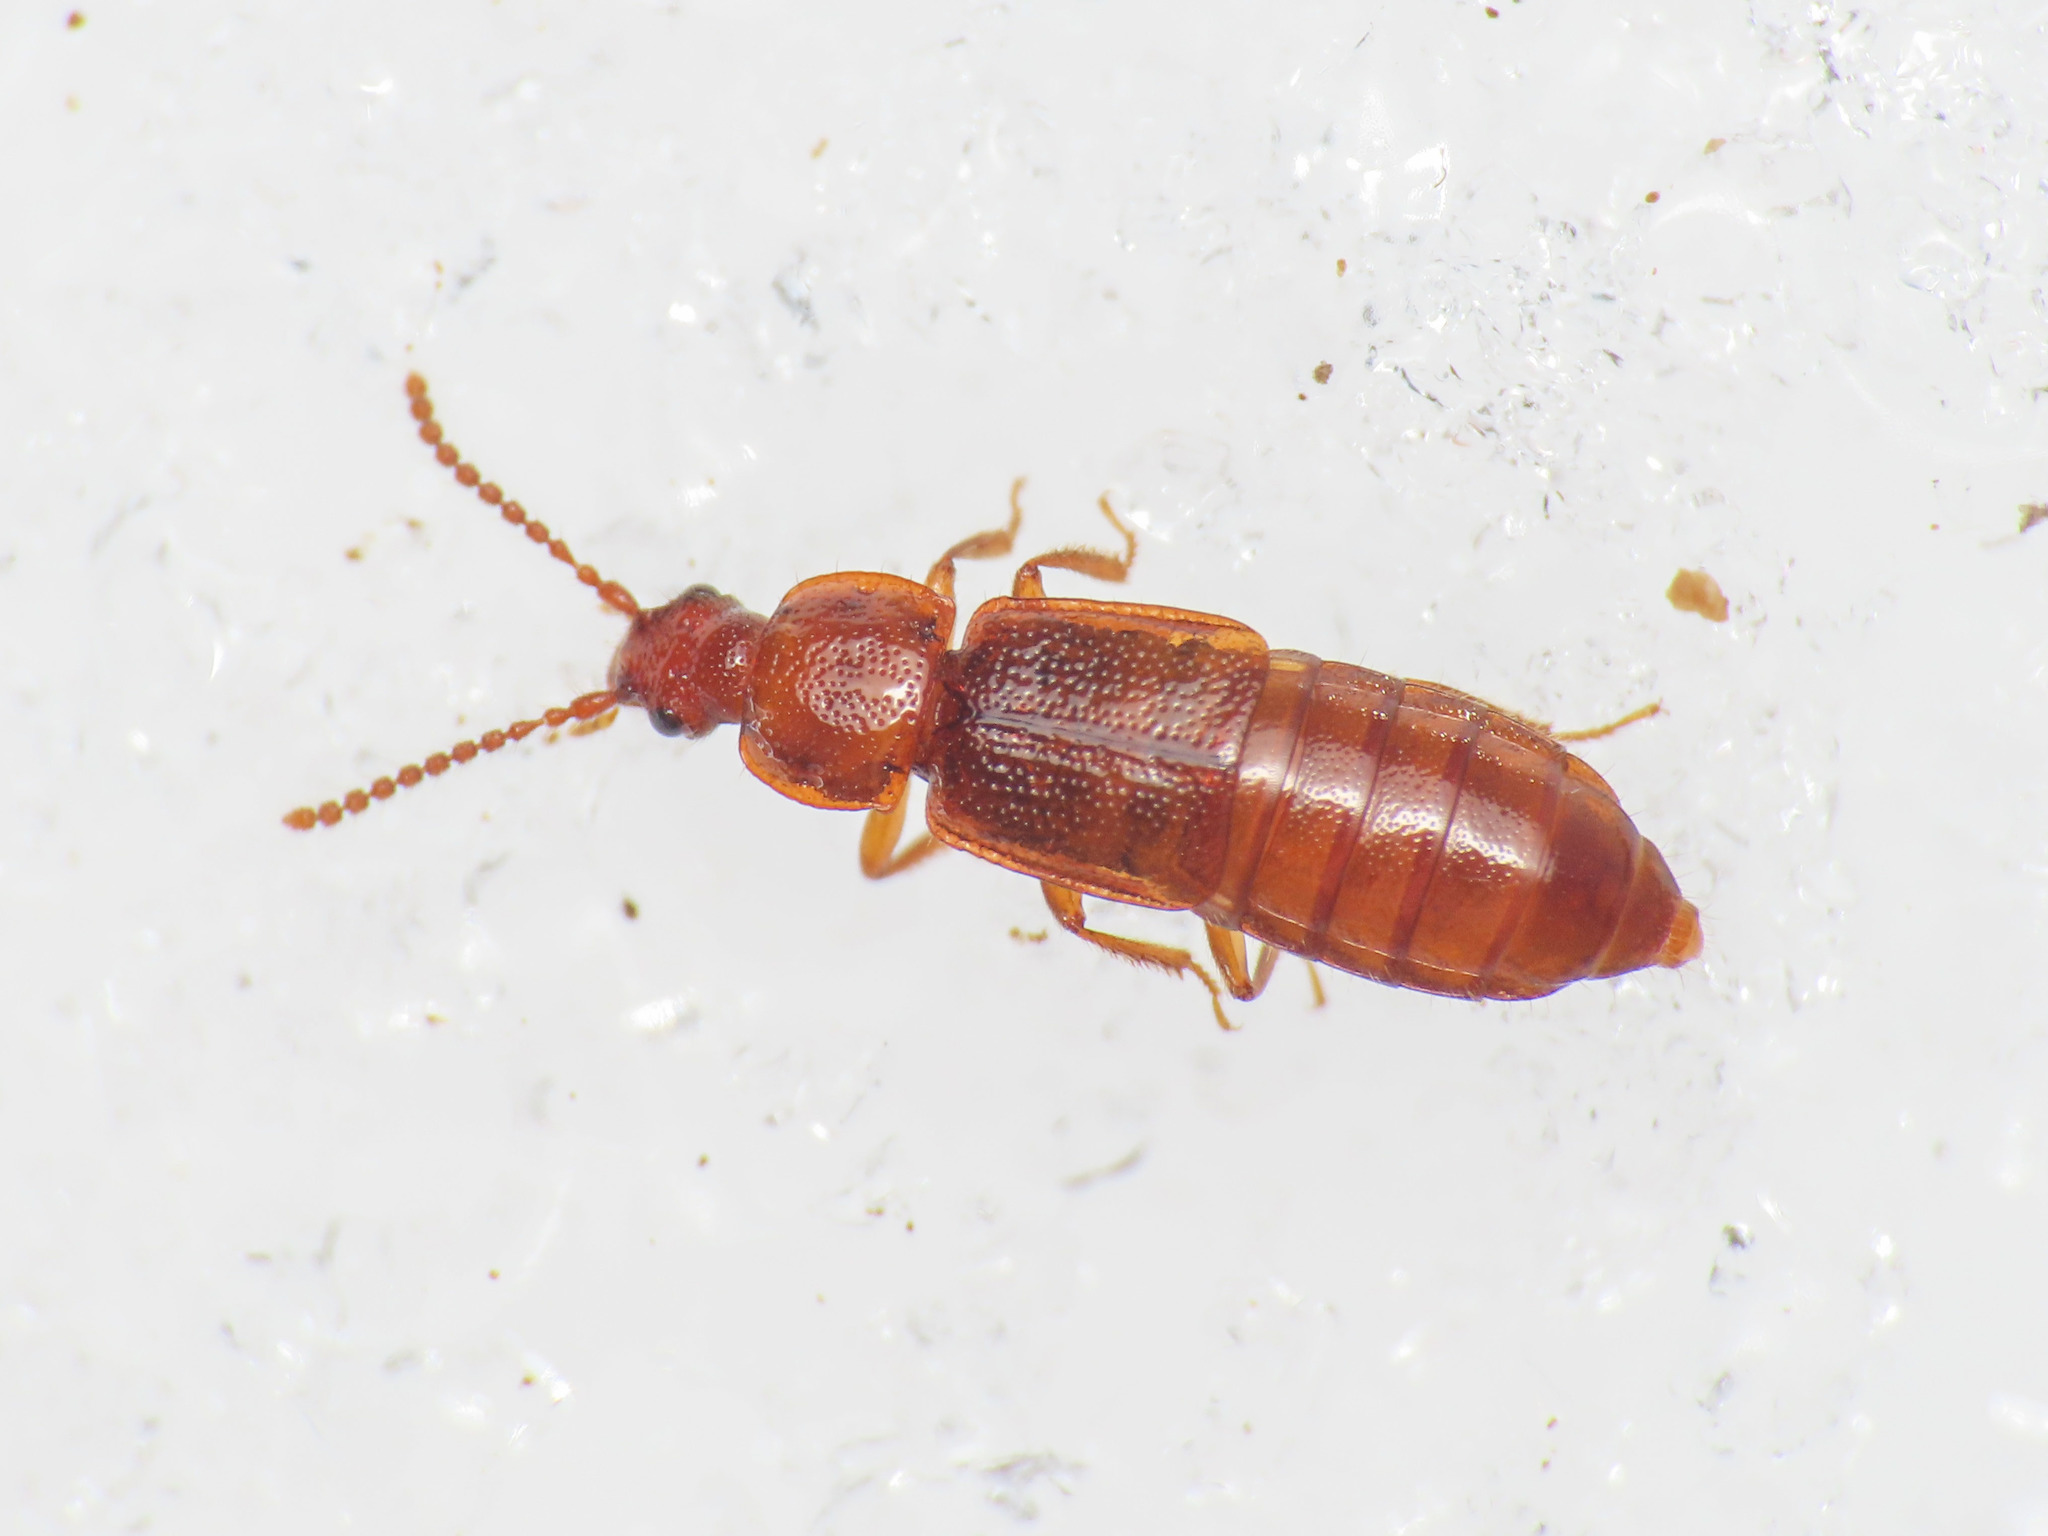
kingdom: Animalia
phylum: Arthropoda
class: Insecta
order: Coleoptera
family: Staphylinidae
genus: Acidota
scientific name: Acidota cruentata
